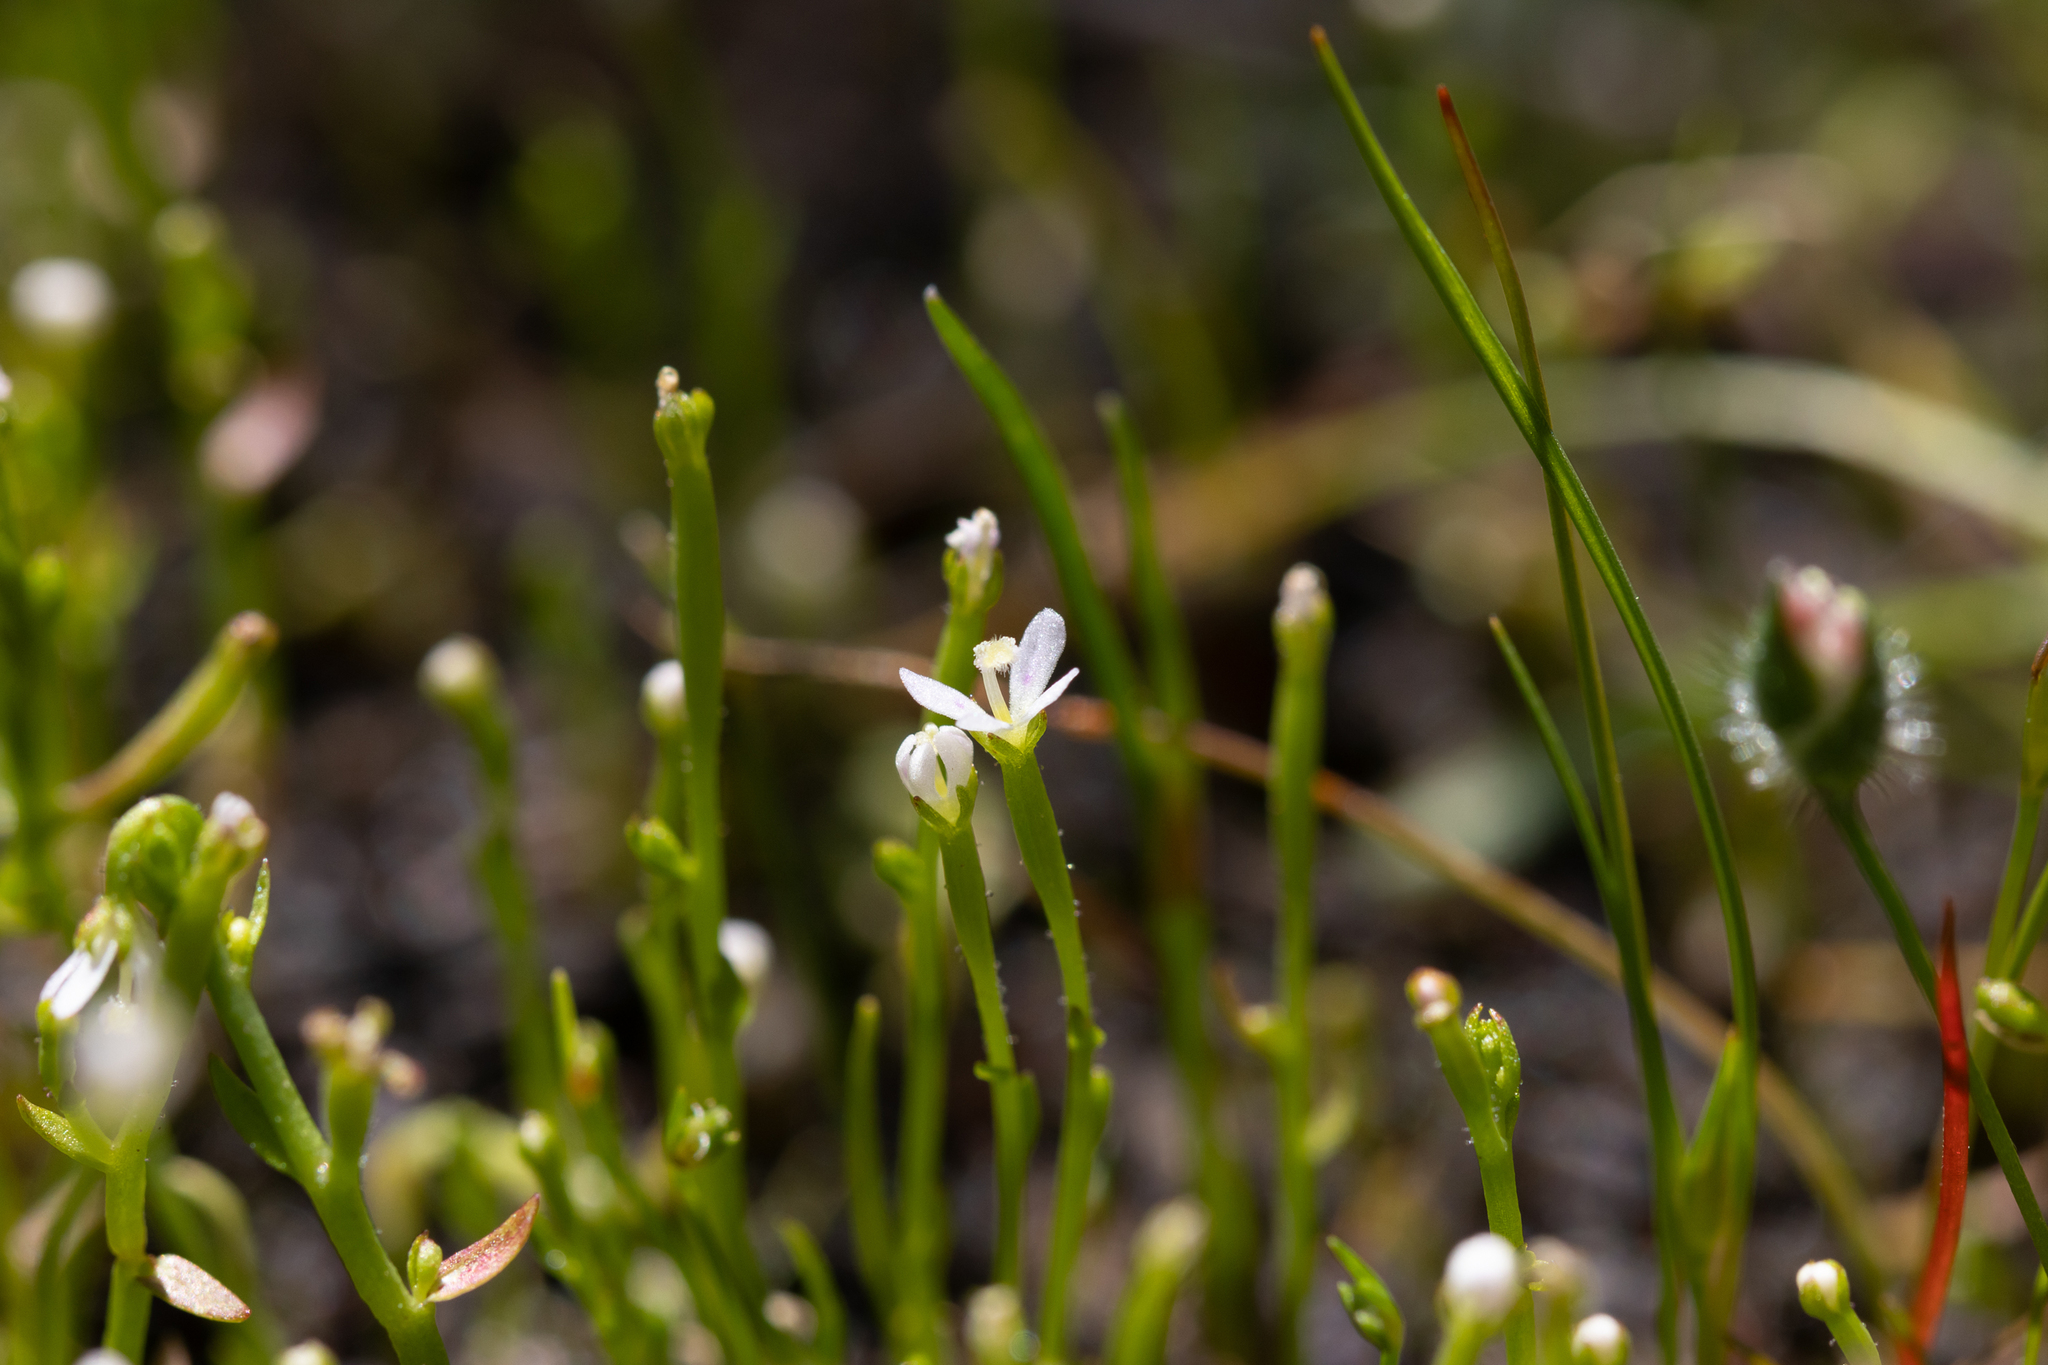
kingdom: Plantae
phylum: Tracheophyta
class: Magnoliopsida
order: Asterales
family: Stylidiaceae
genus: Stylidium
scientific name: Stylidium despectum
